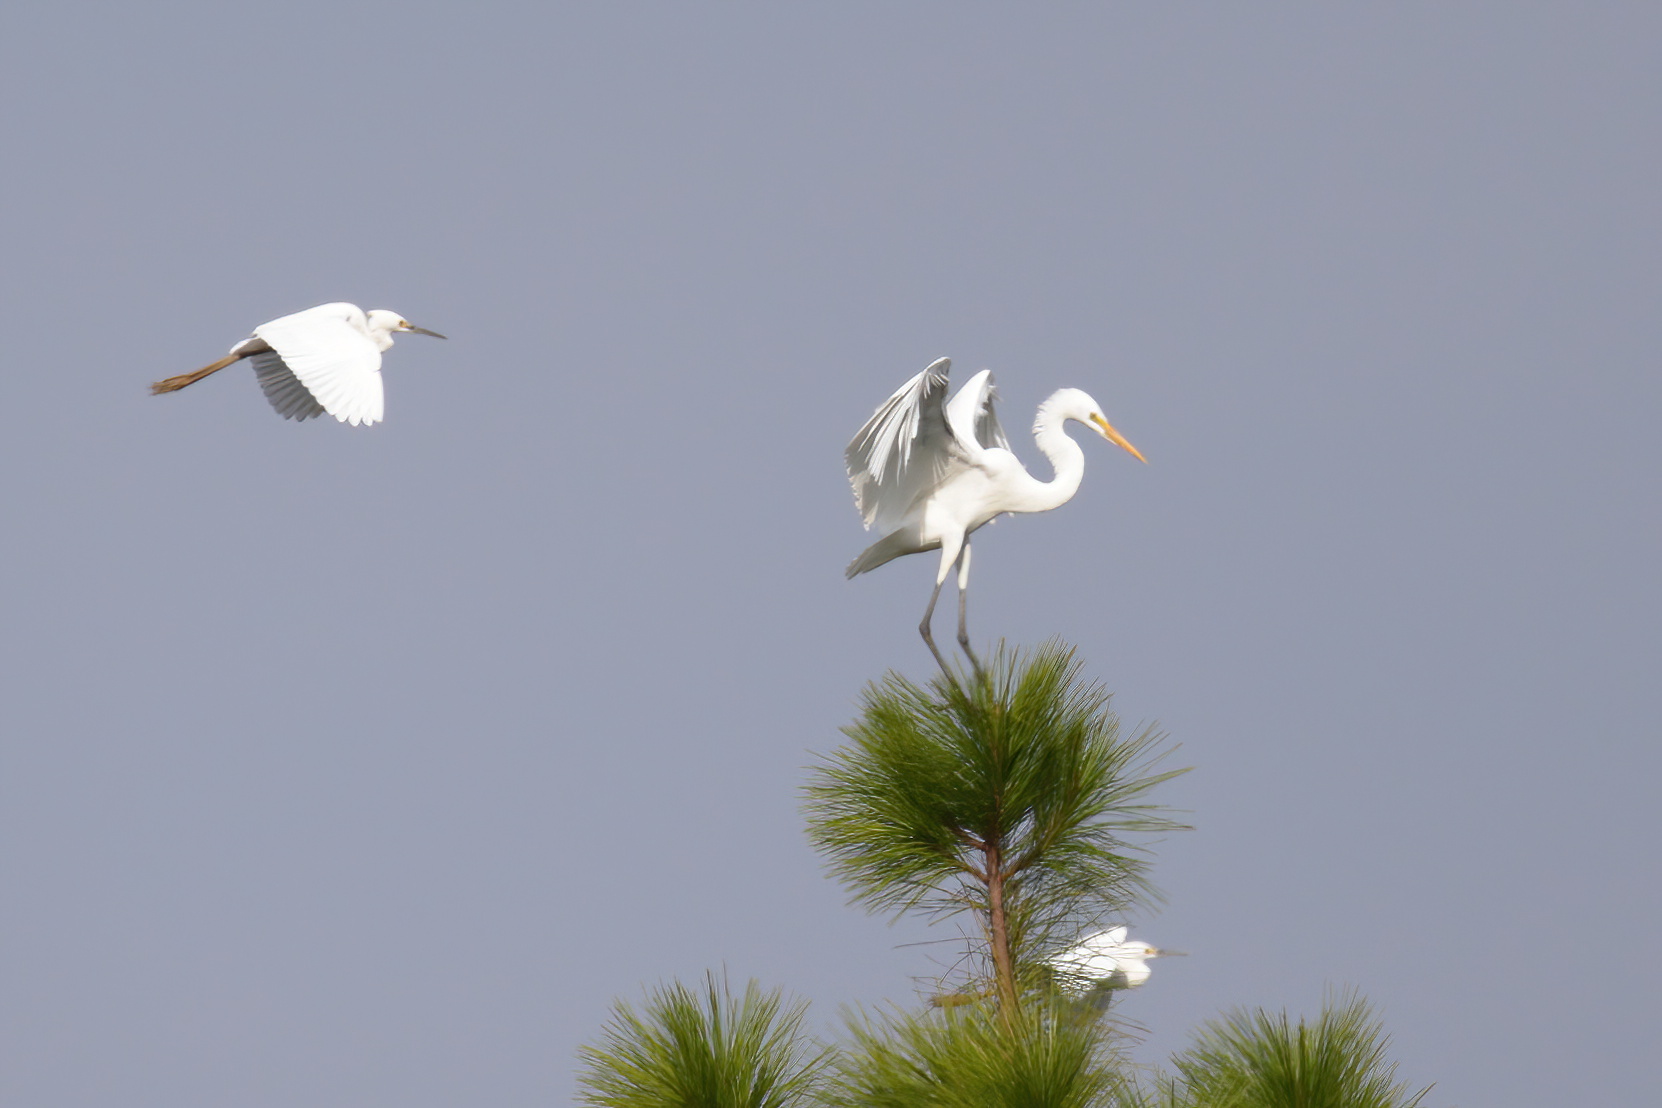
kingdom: Animalia
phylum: Chordata
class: Aves
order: Pelecaniformes
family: Ardeidae
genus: Egretta
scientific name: Egretta thula
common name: Snowy egret
